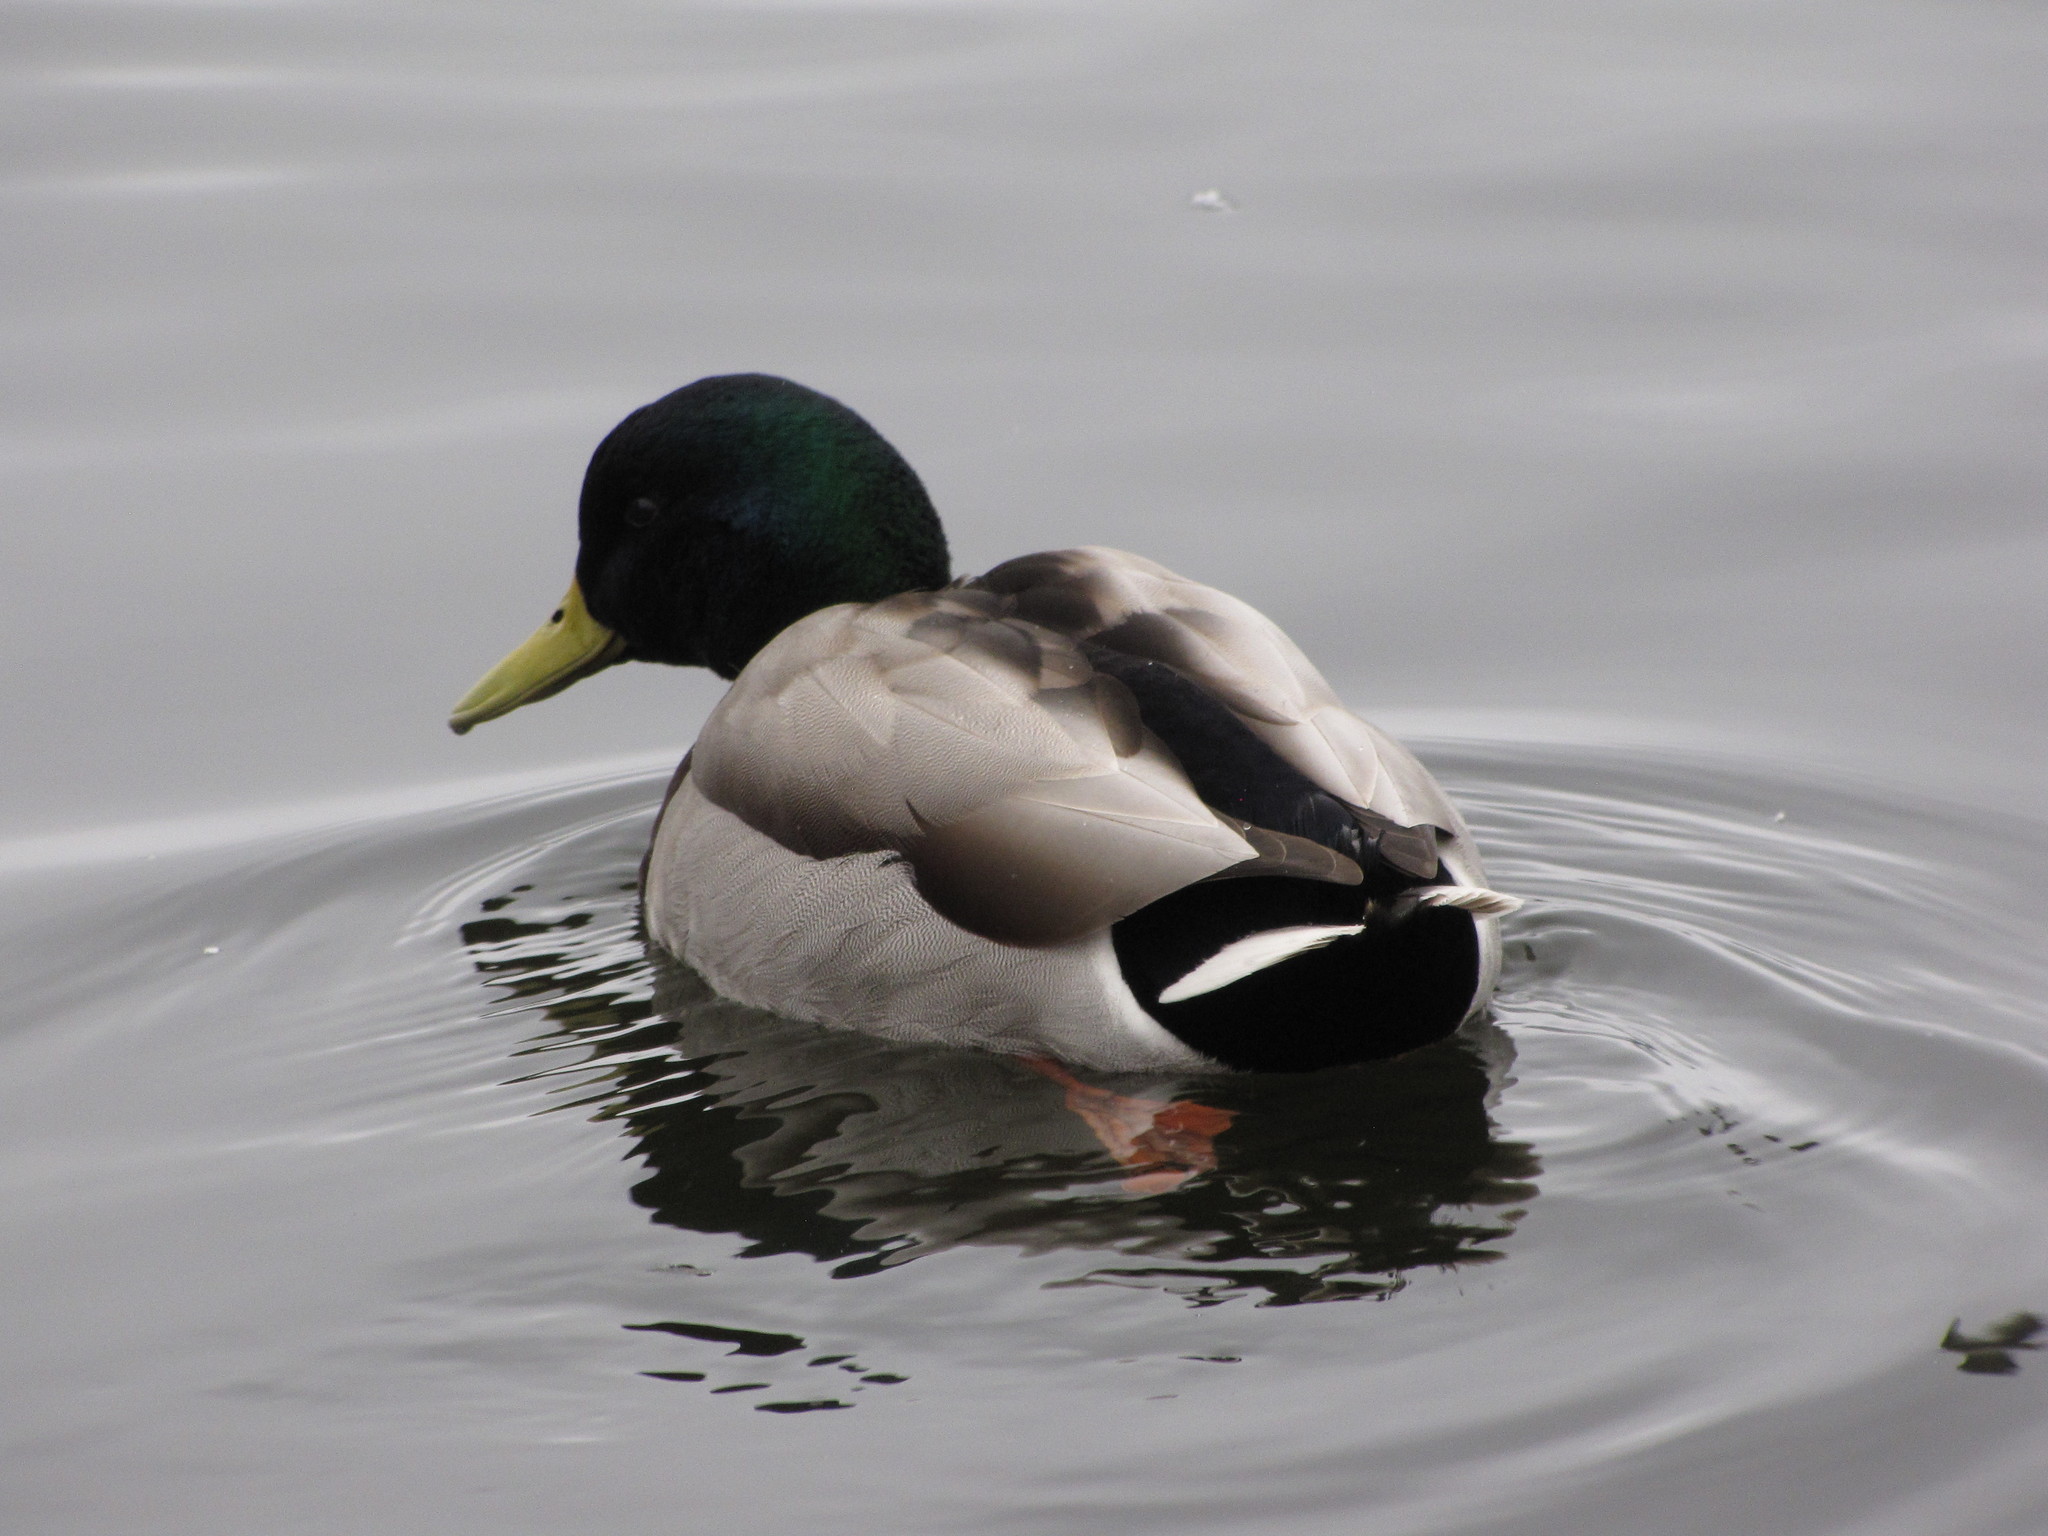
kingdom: Animalia
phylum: Chordata
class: Aves
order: Anseriformes
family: Anatidae
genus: Anas
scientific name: Anas platyrhynchos
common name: Mallard
